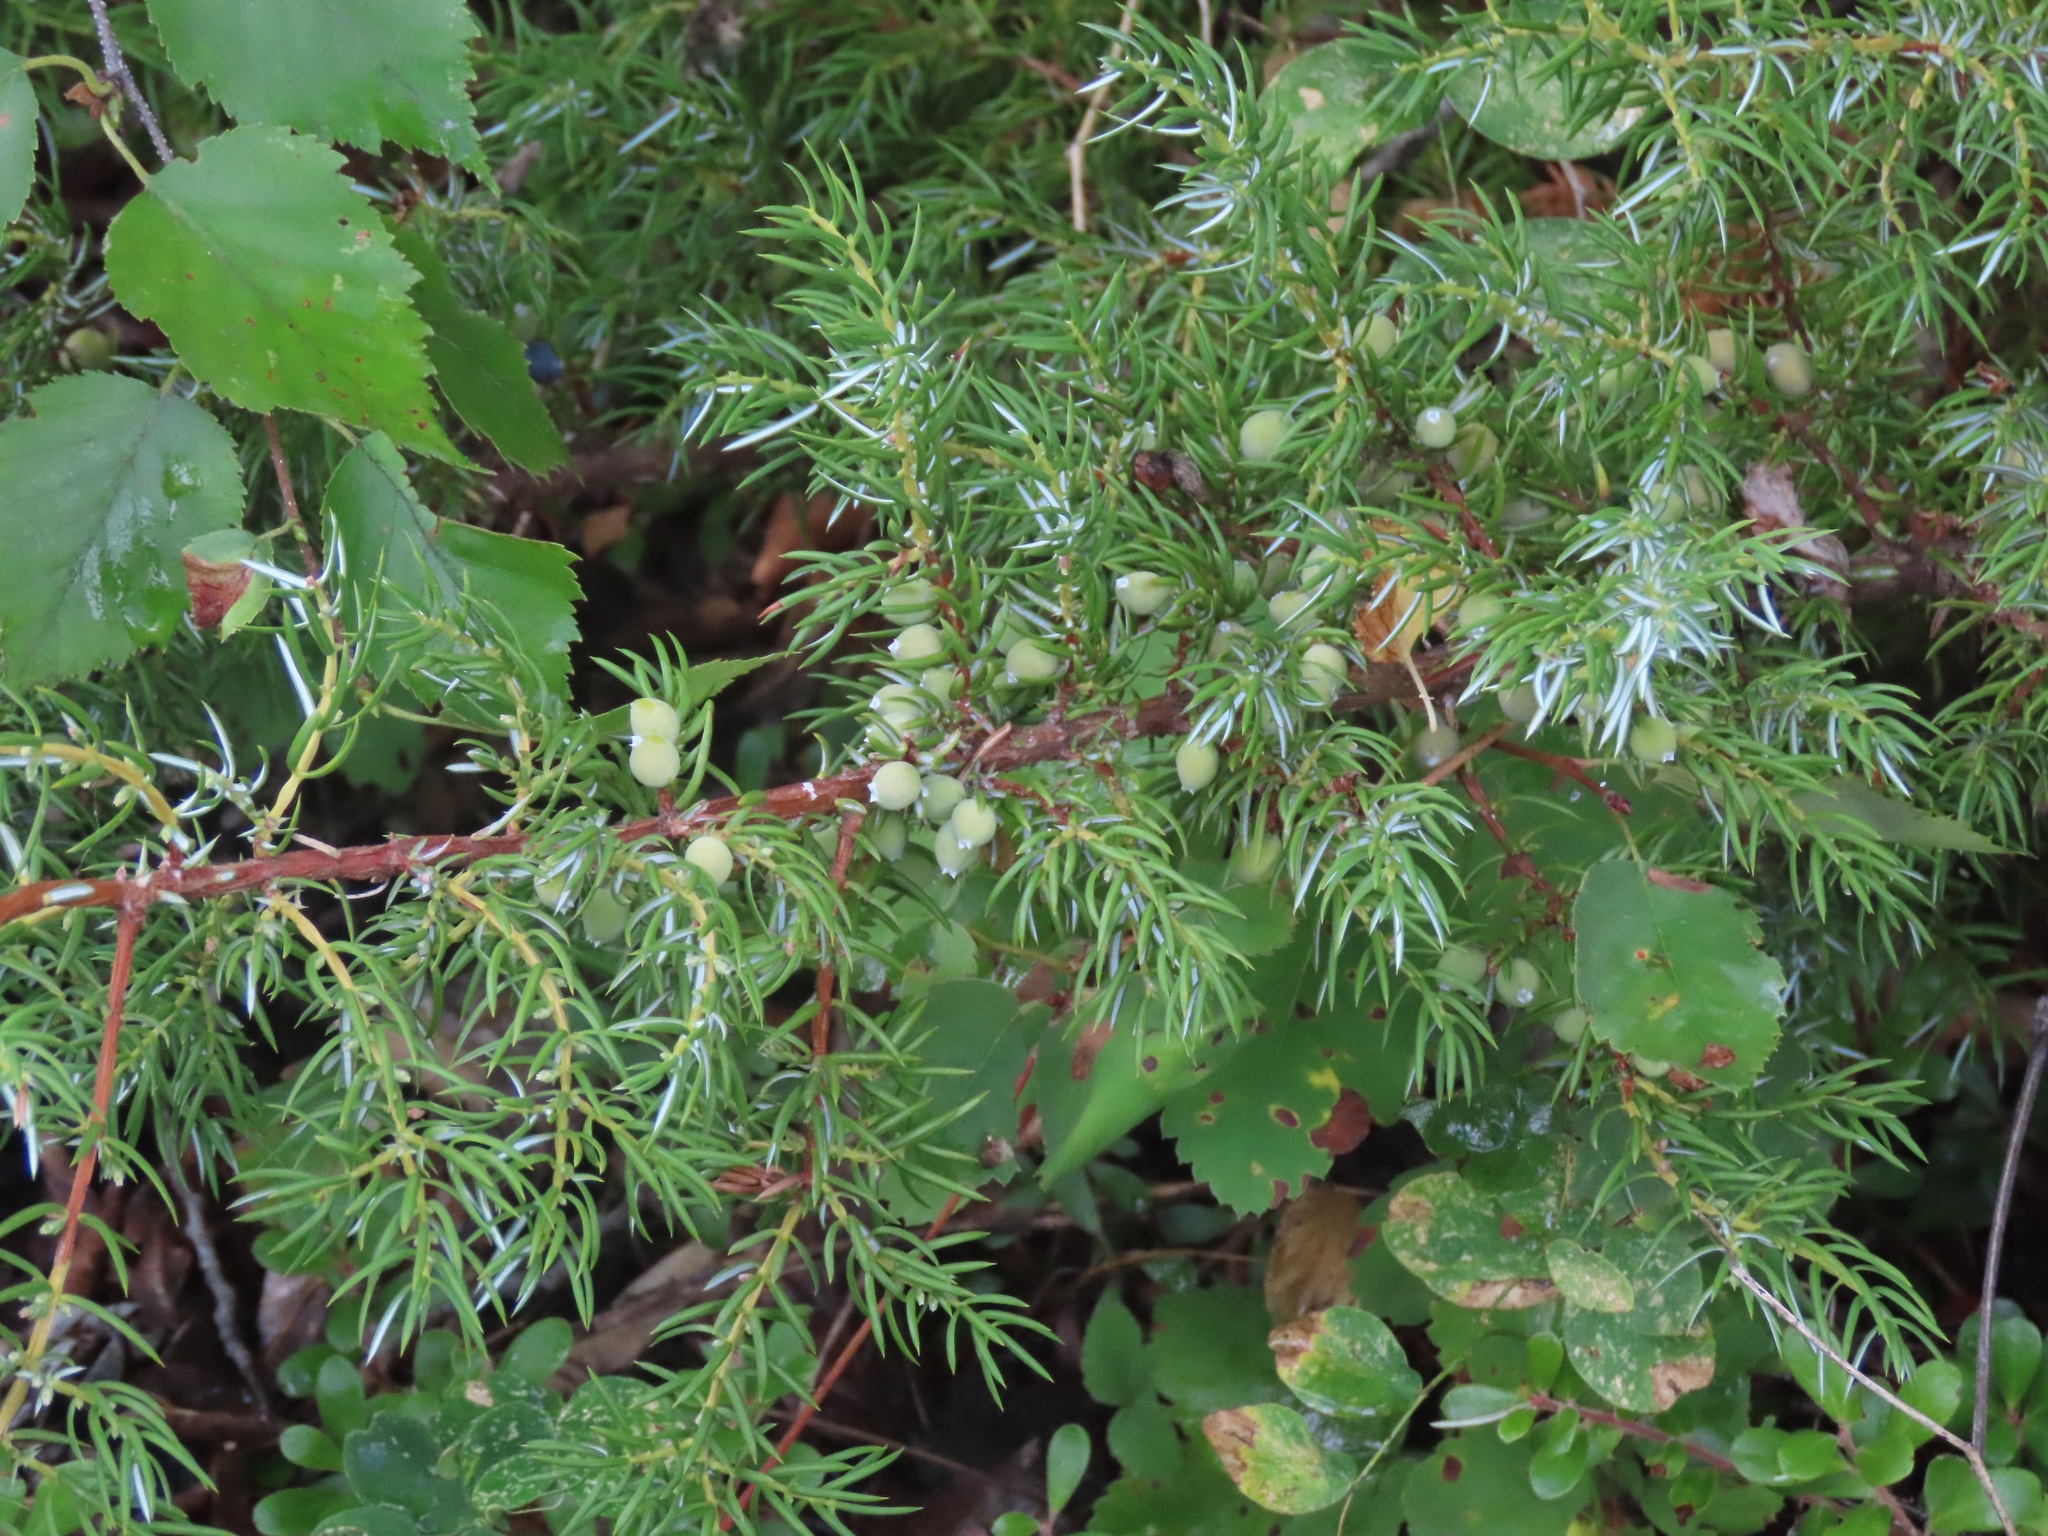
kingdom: Plantae
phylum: Tracheophyta
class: Pinopsida
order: Pinales
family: Cupressaceae
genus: Juniperus
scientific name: Juniperus communis
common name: Common juniper
